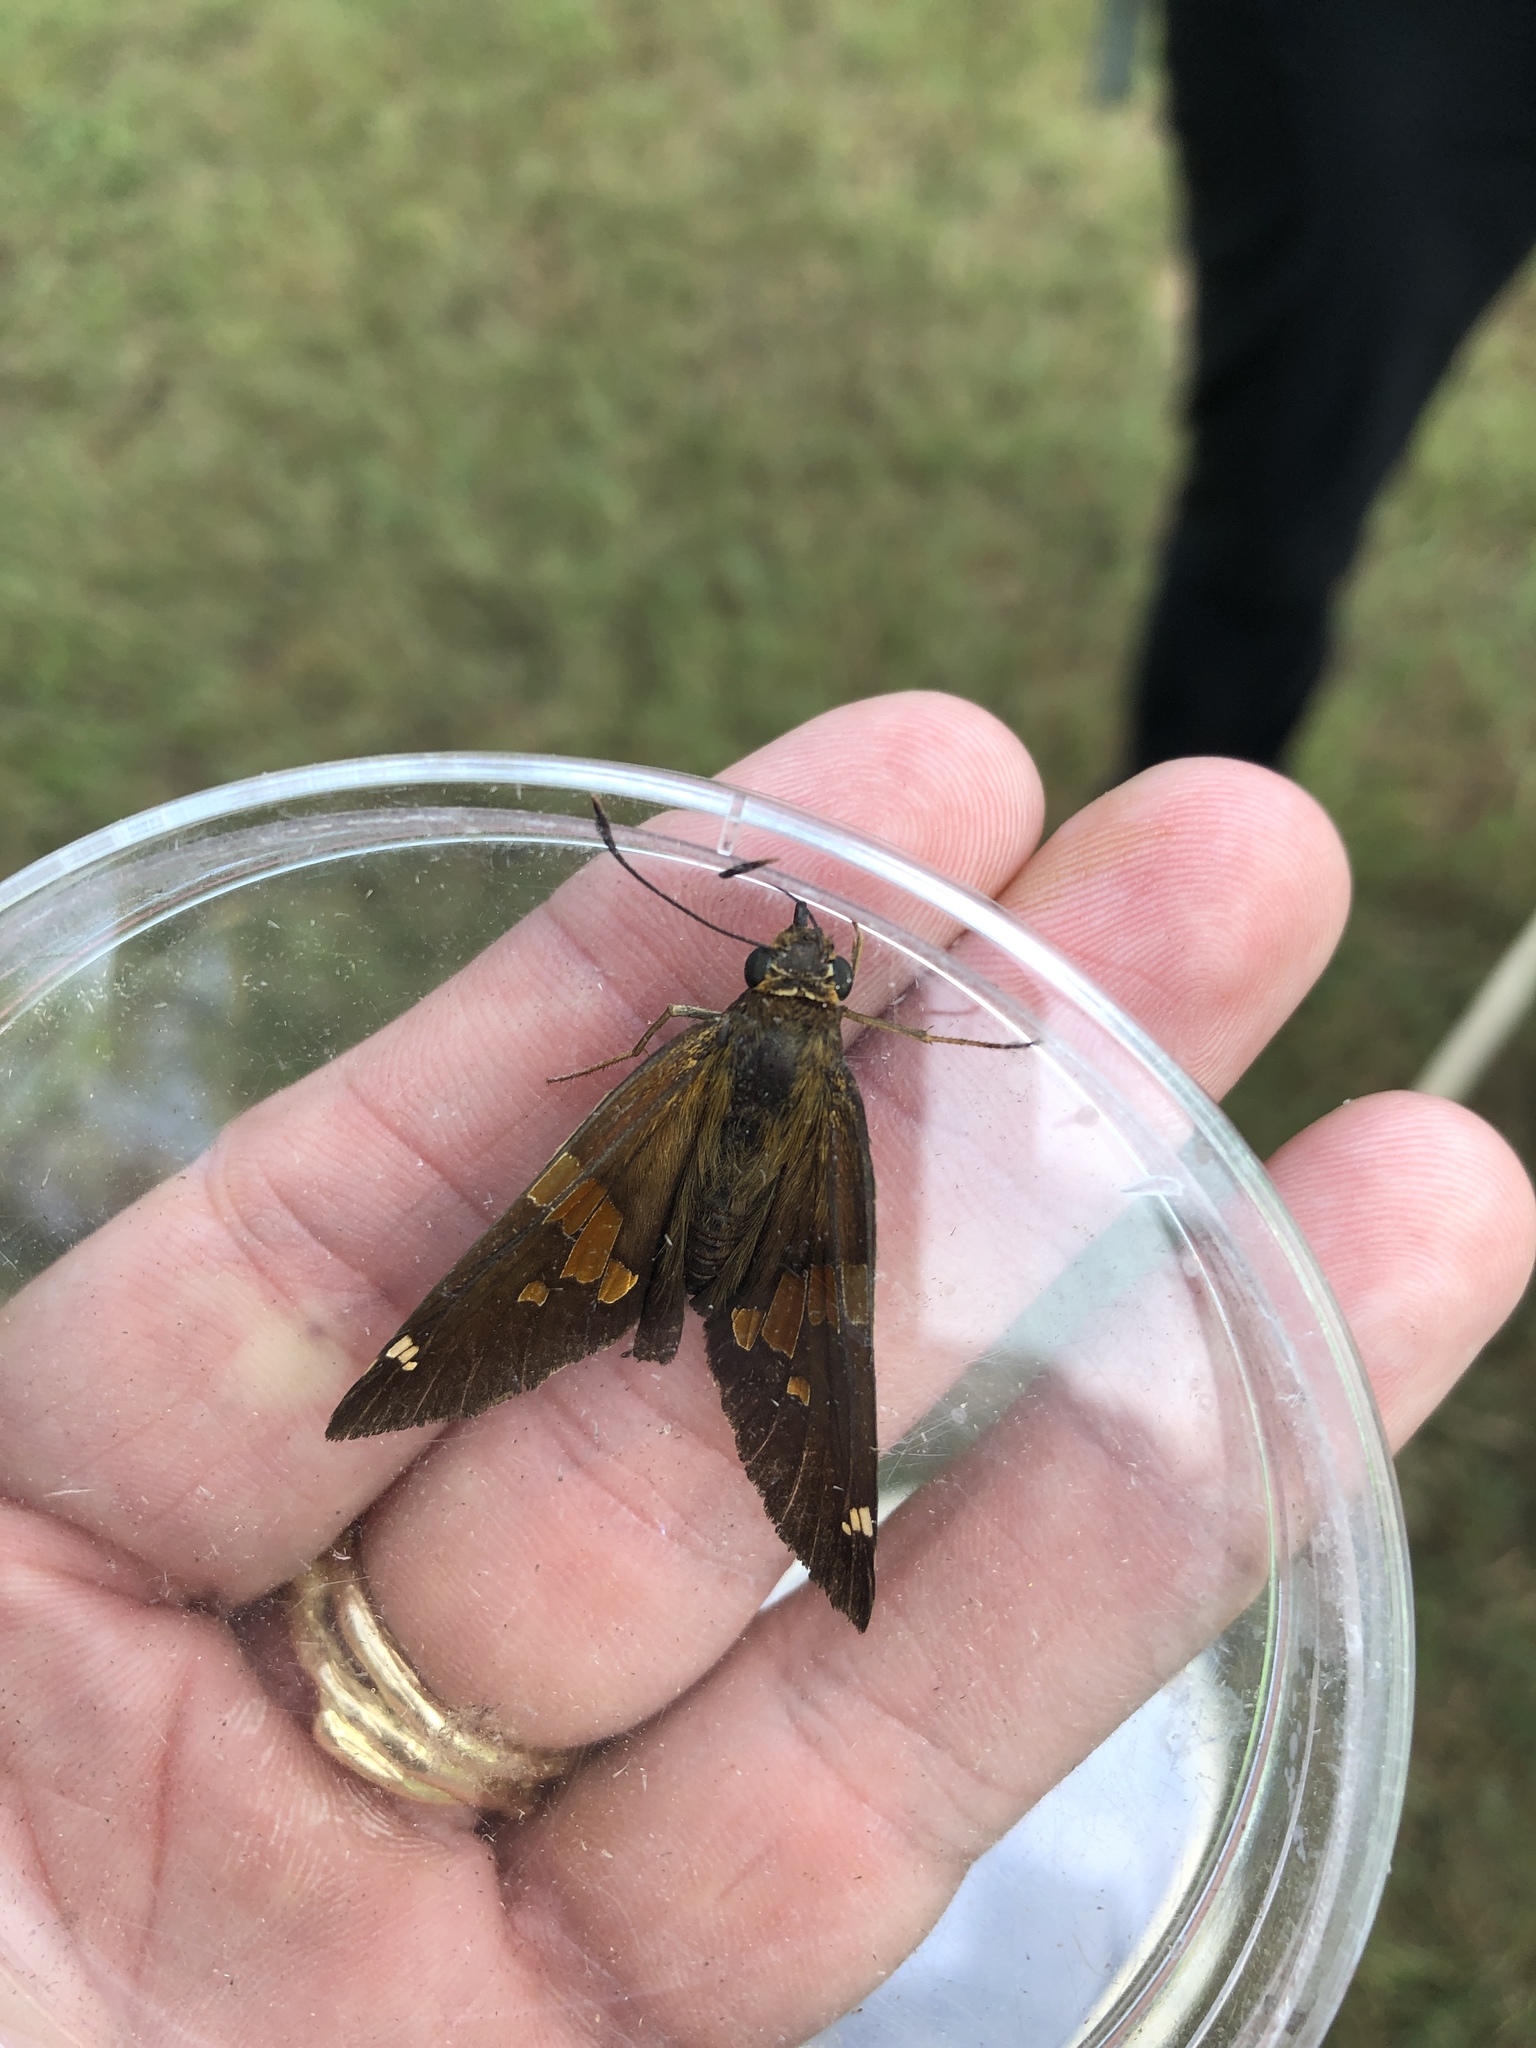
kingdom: Animalia
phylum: Arthropoda
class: Insecta
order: Lepidoptera
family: Hesperiidae
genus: Epargyreus
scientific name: Epargyreus clarus
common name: Silver-spotted skipper
